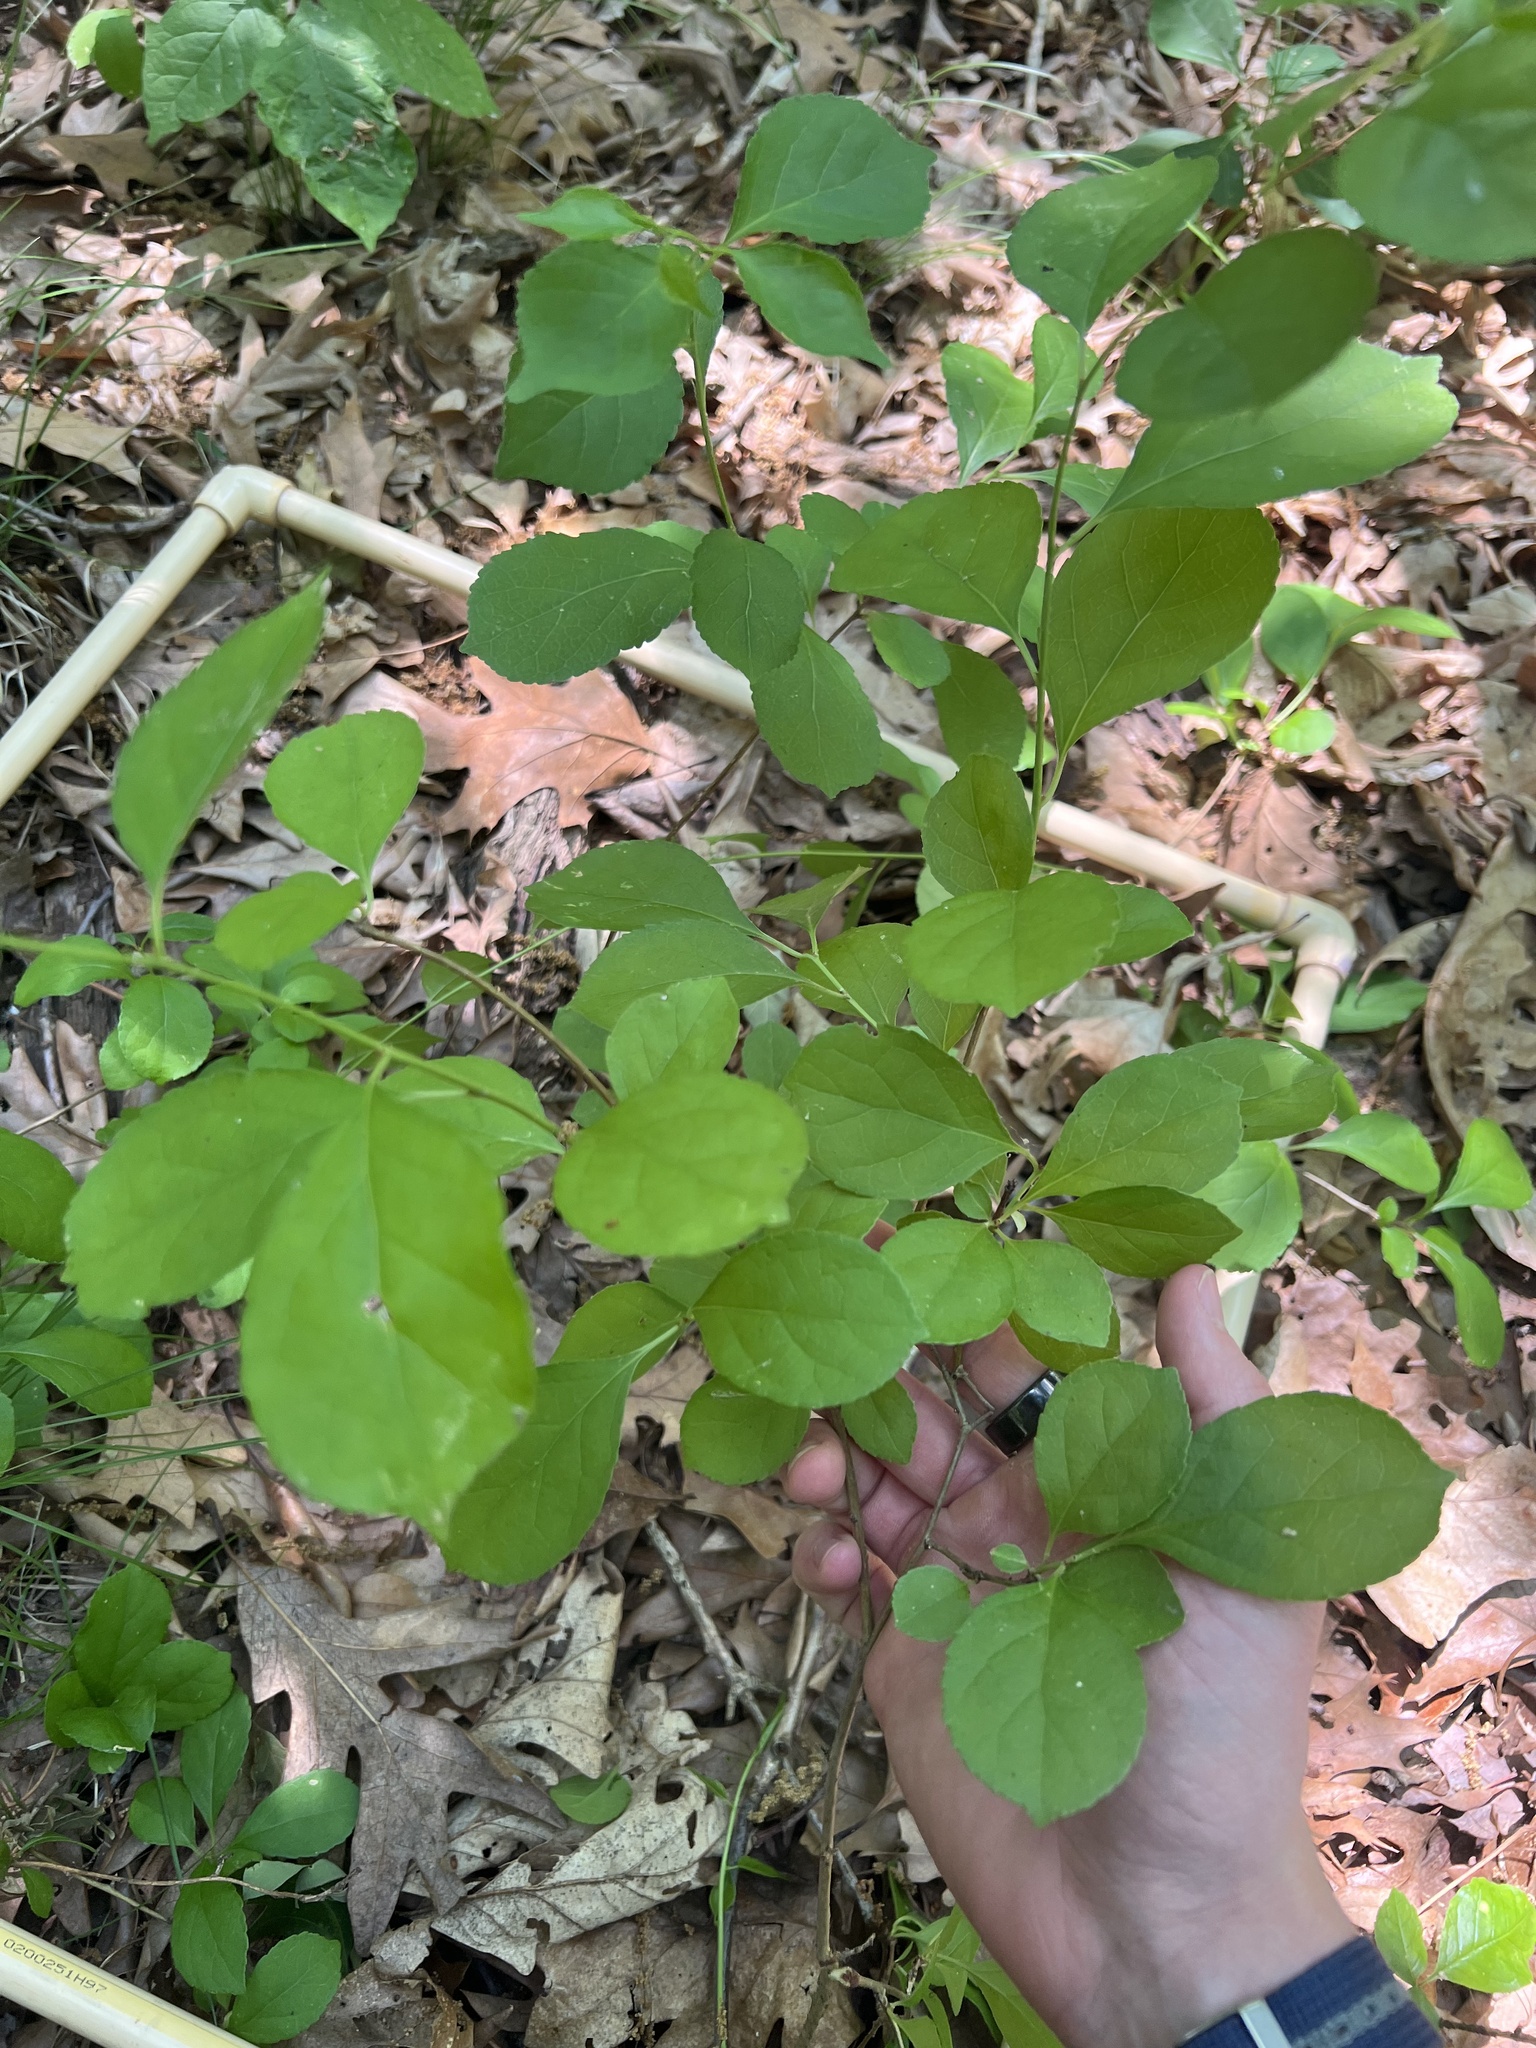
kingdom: Plantae
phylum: Tracheophyta
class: Magnoliopsida
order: Celastrales
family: Celastraceae
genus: Celastrus
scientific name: Celastrus orbiculatus
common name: Oriental bittersweet
